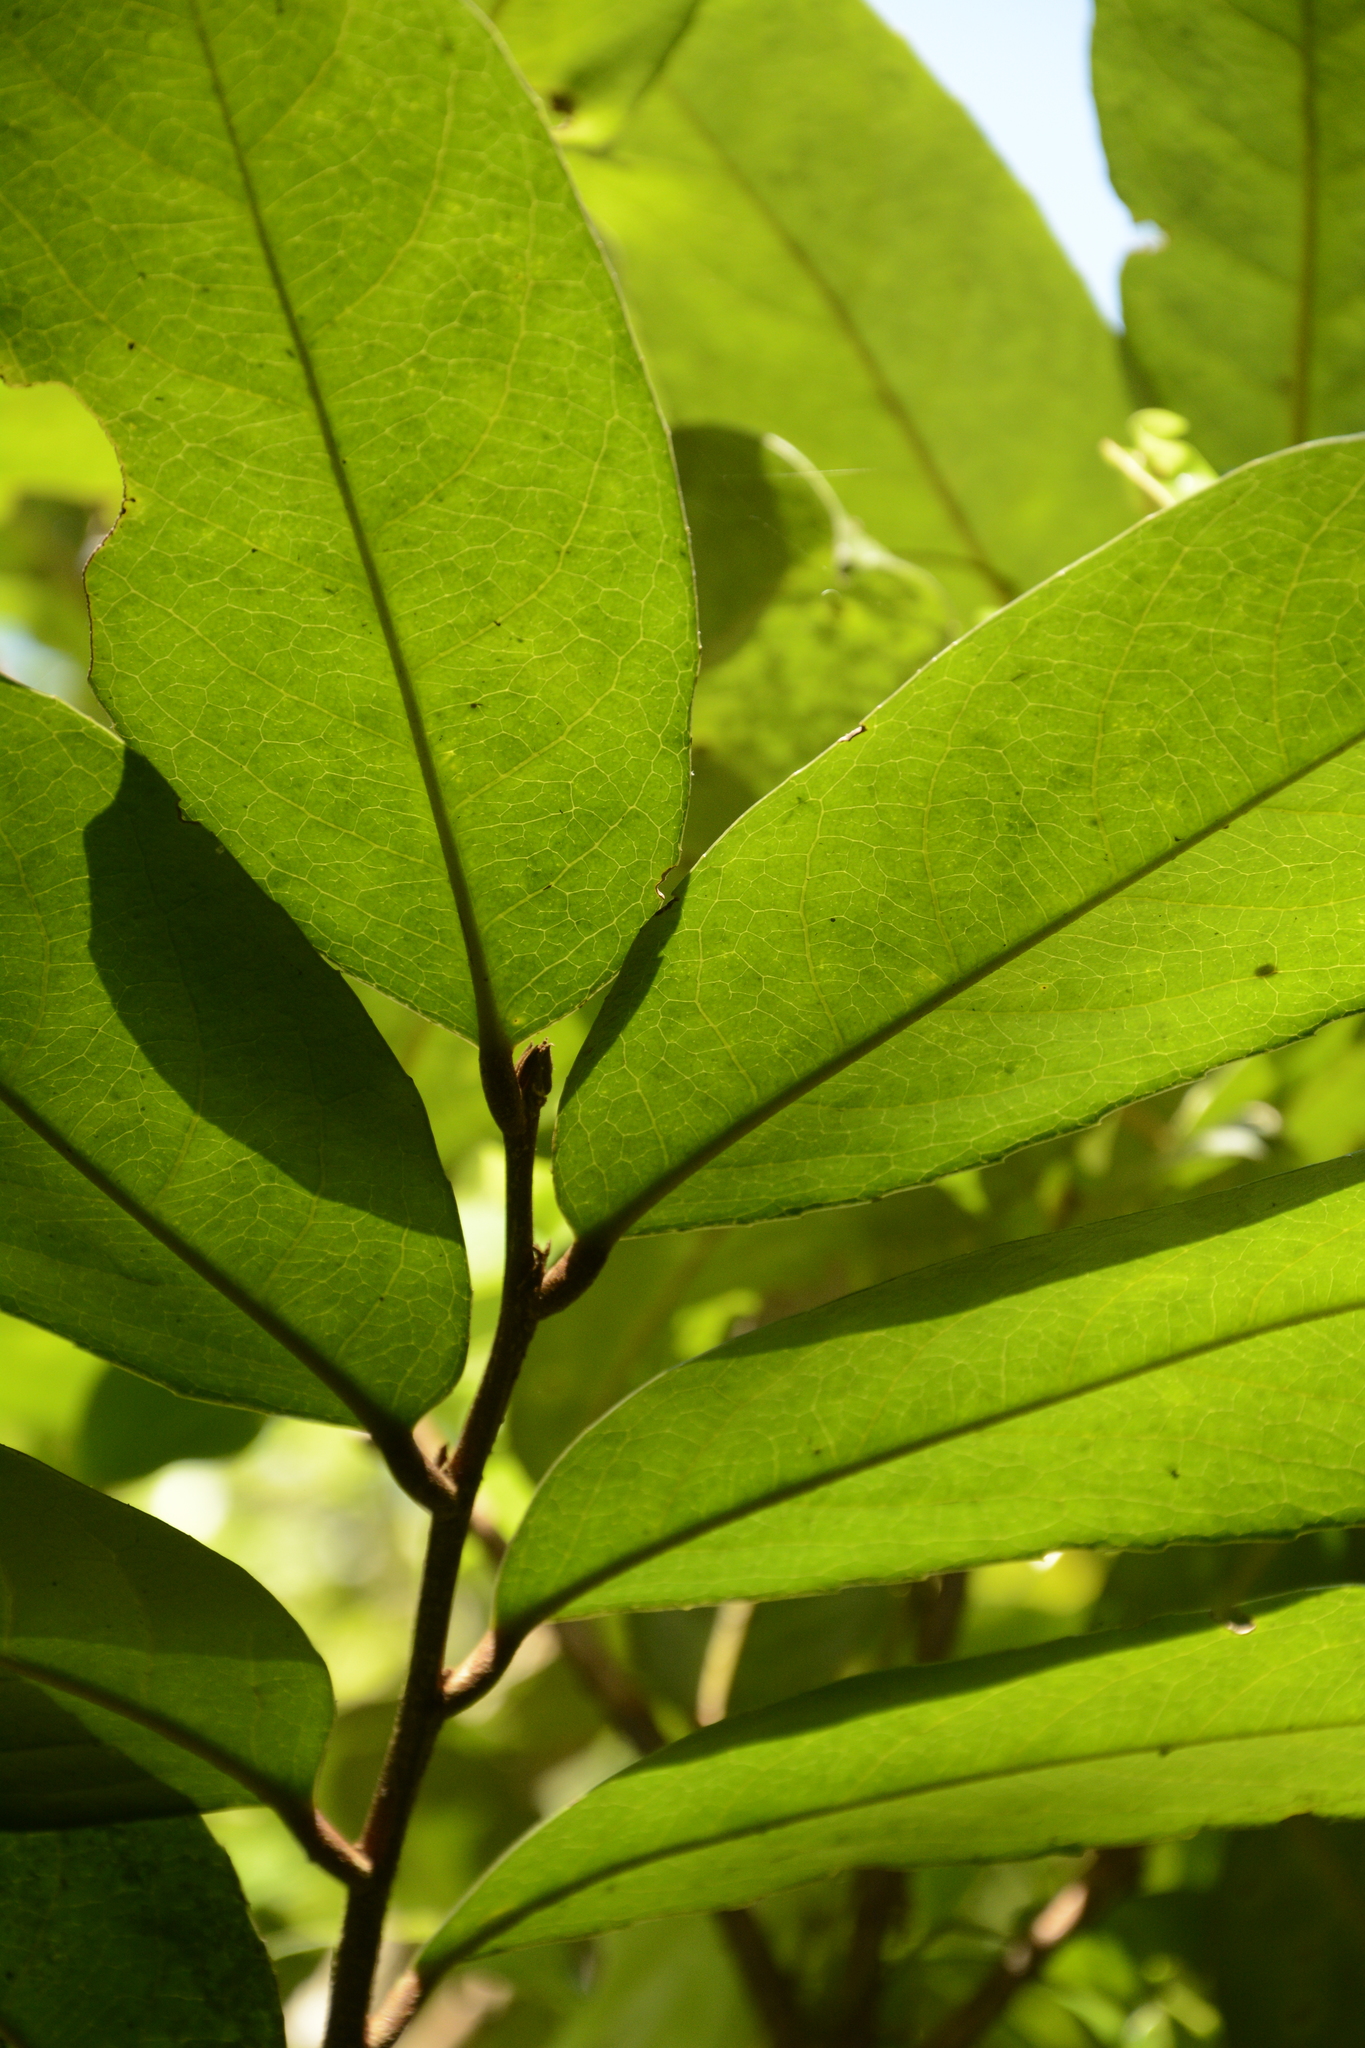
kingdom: Plantae
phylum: Tracheophyta
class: Magnoliopsida
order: Malpighiales
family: Putranjivaceae
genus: Drypetes
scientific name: Drypetes oblongifolia
